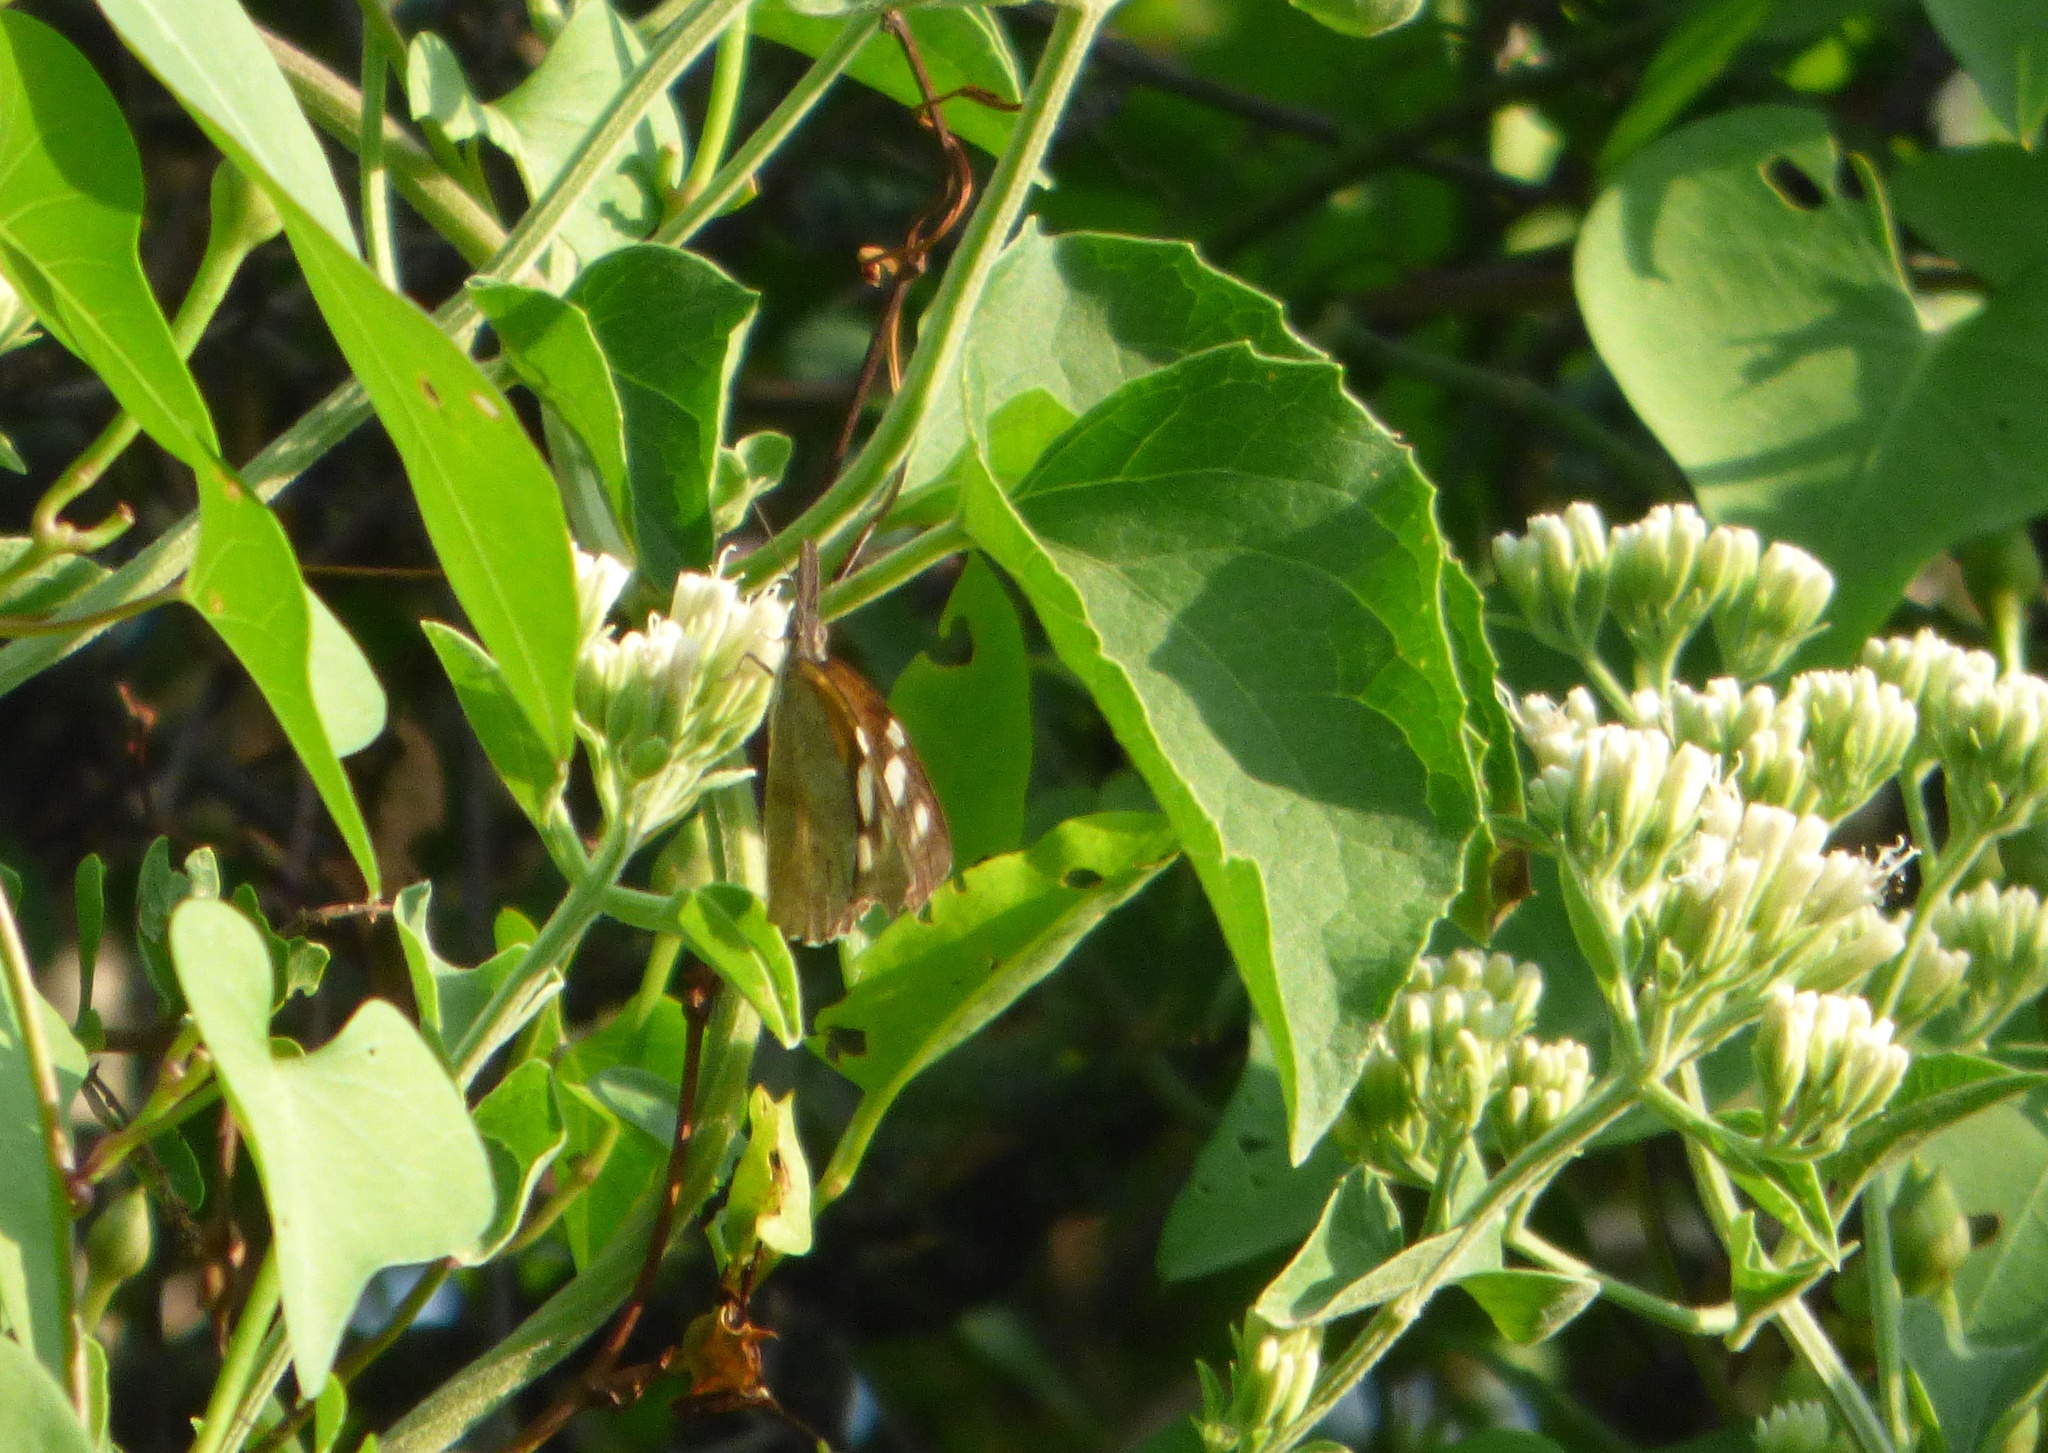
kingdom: Animalia
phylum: Arthropoda
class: Insecta
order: Lepidoptera
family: Nymphalidae
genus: Libytheana
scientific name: Libytheana carinenta
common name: American snout
